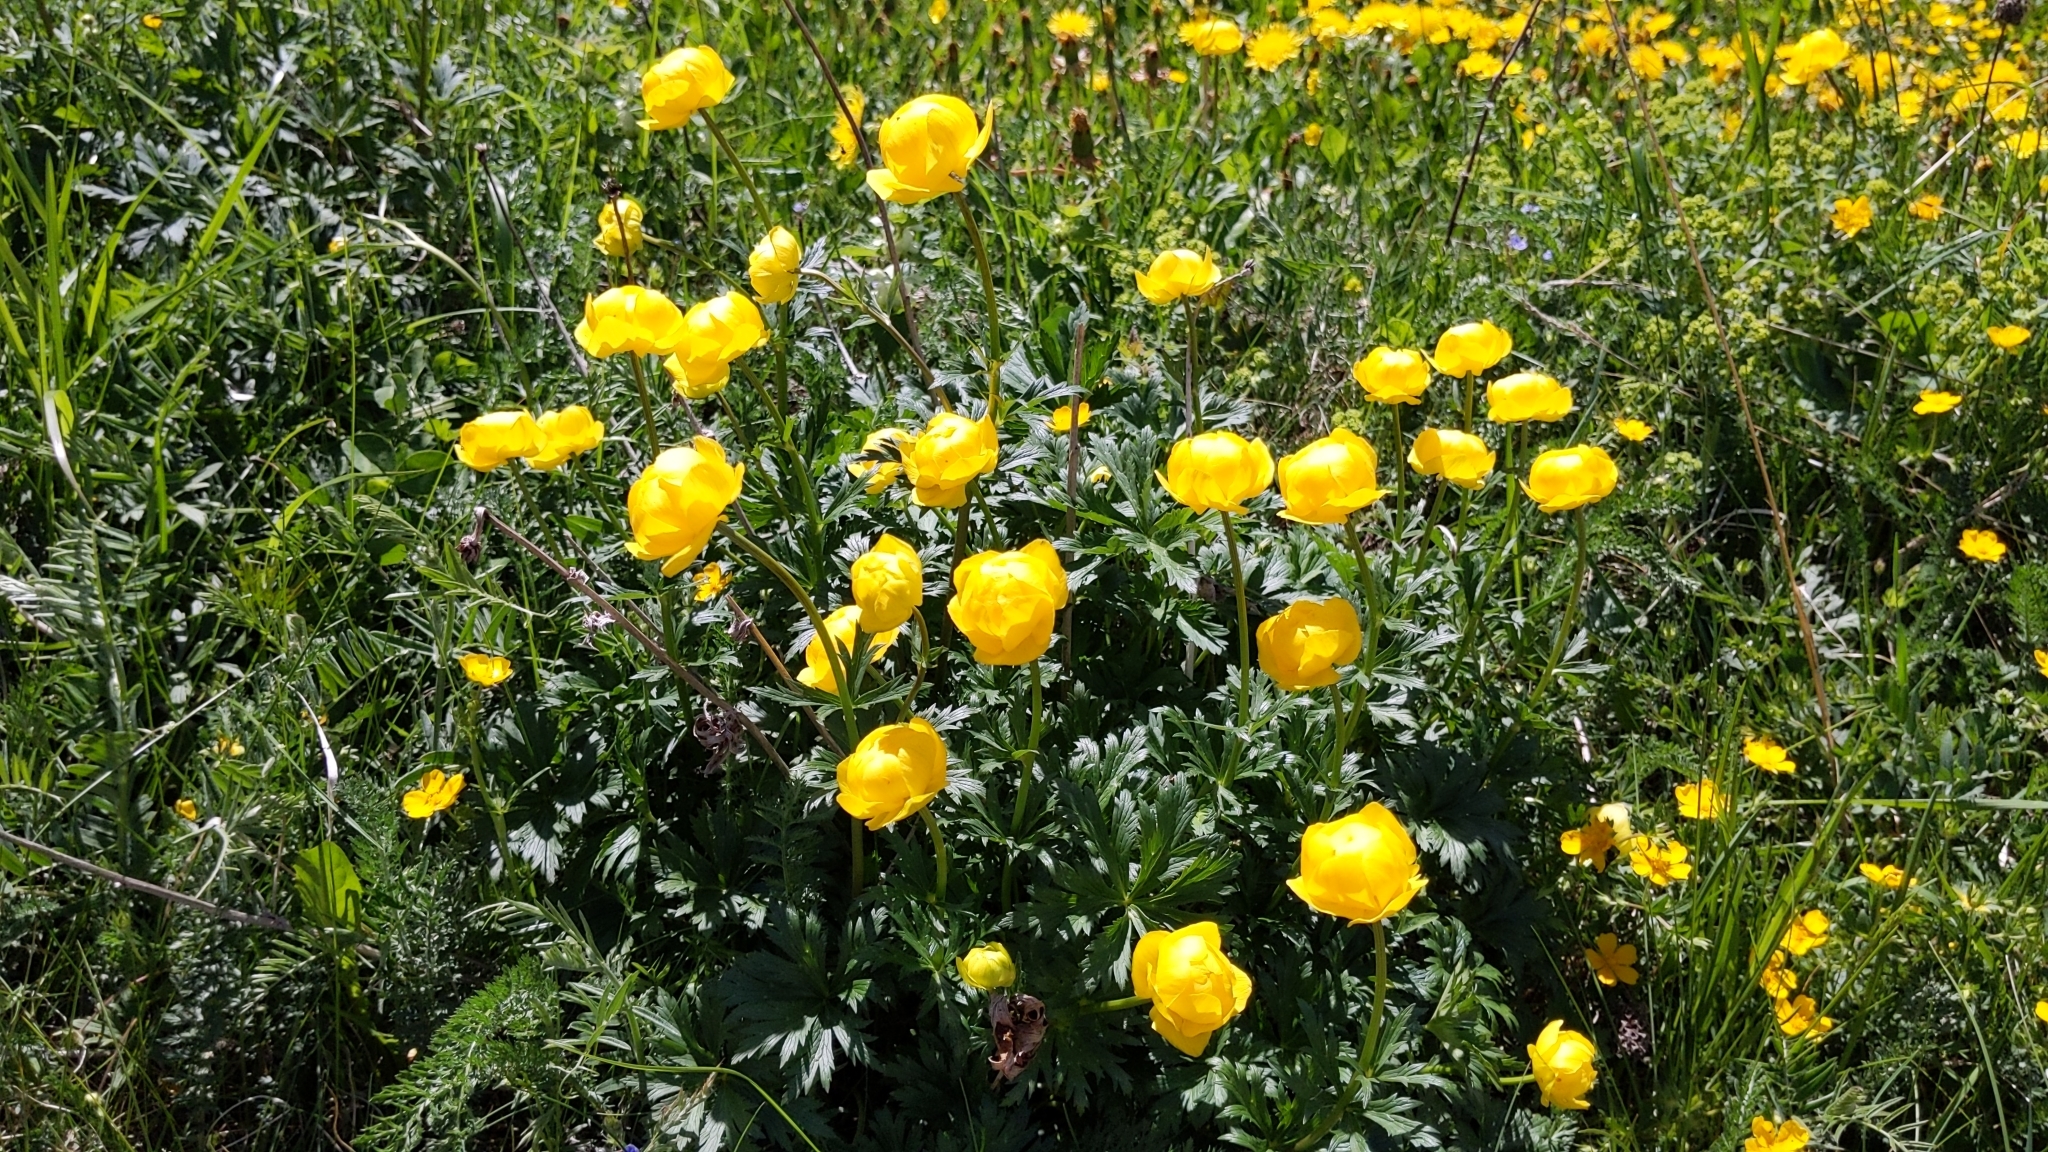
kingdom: Plantae
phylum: Tracheophyta
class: Magnoliopsida
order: Ranunculales
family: Ranunculaceae
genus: Trollius
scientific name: Trollius europaeus
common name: European globeflower
